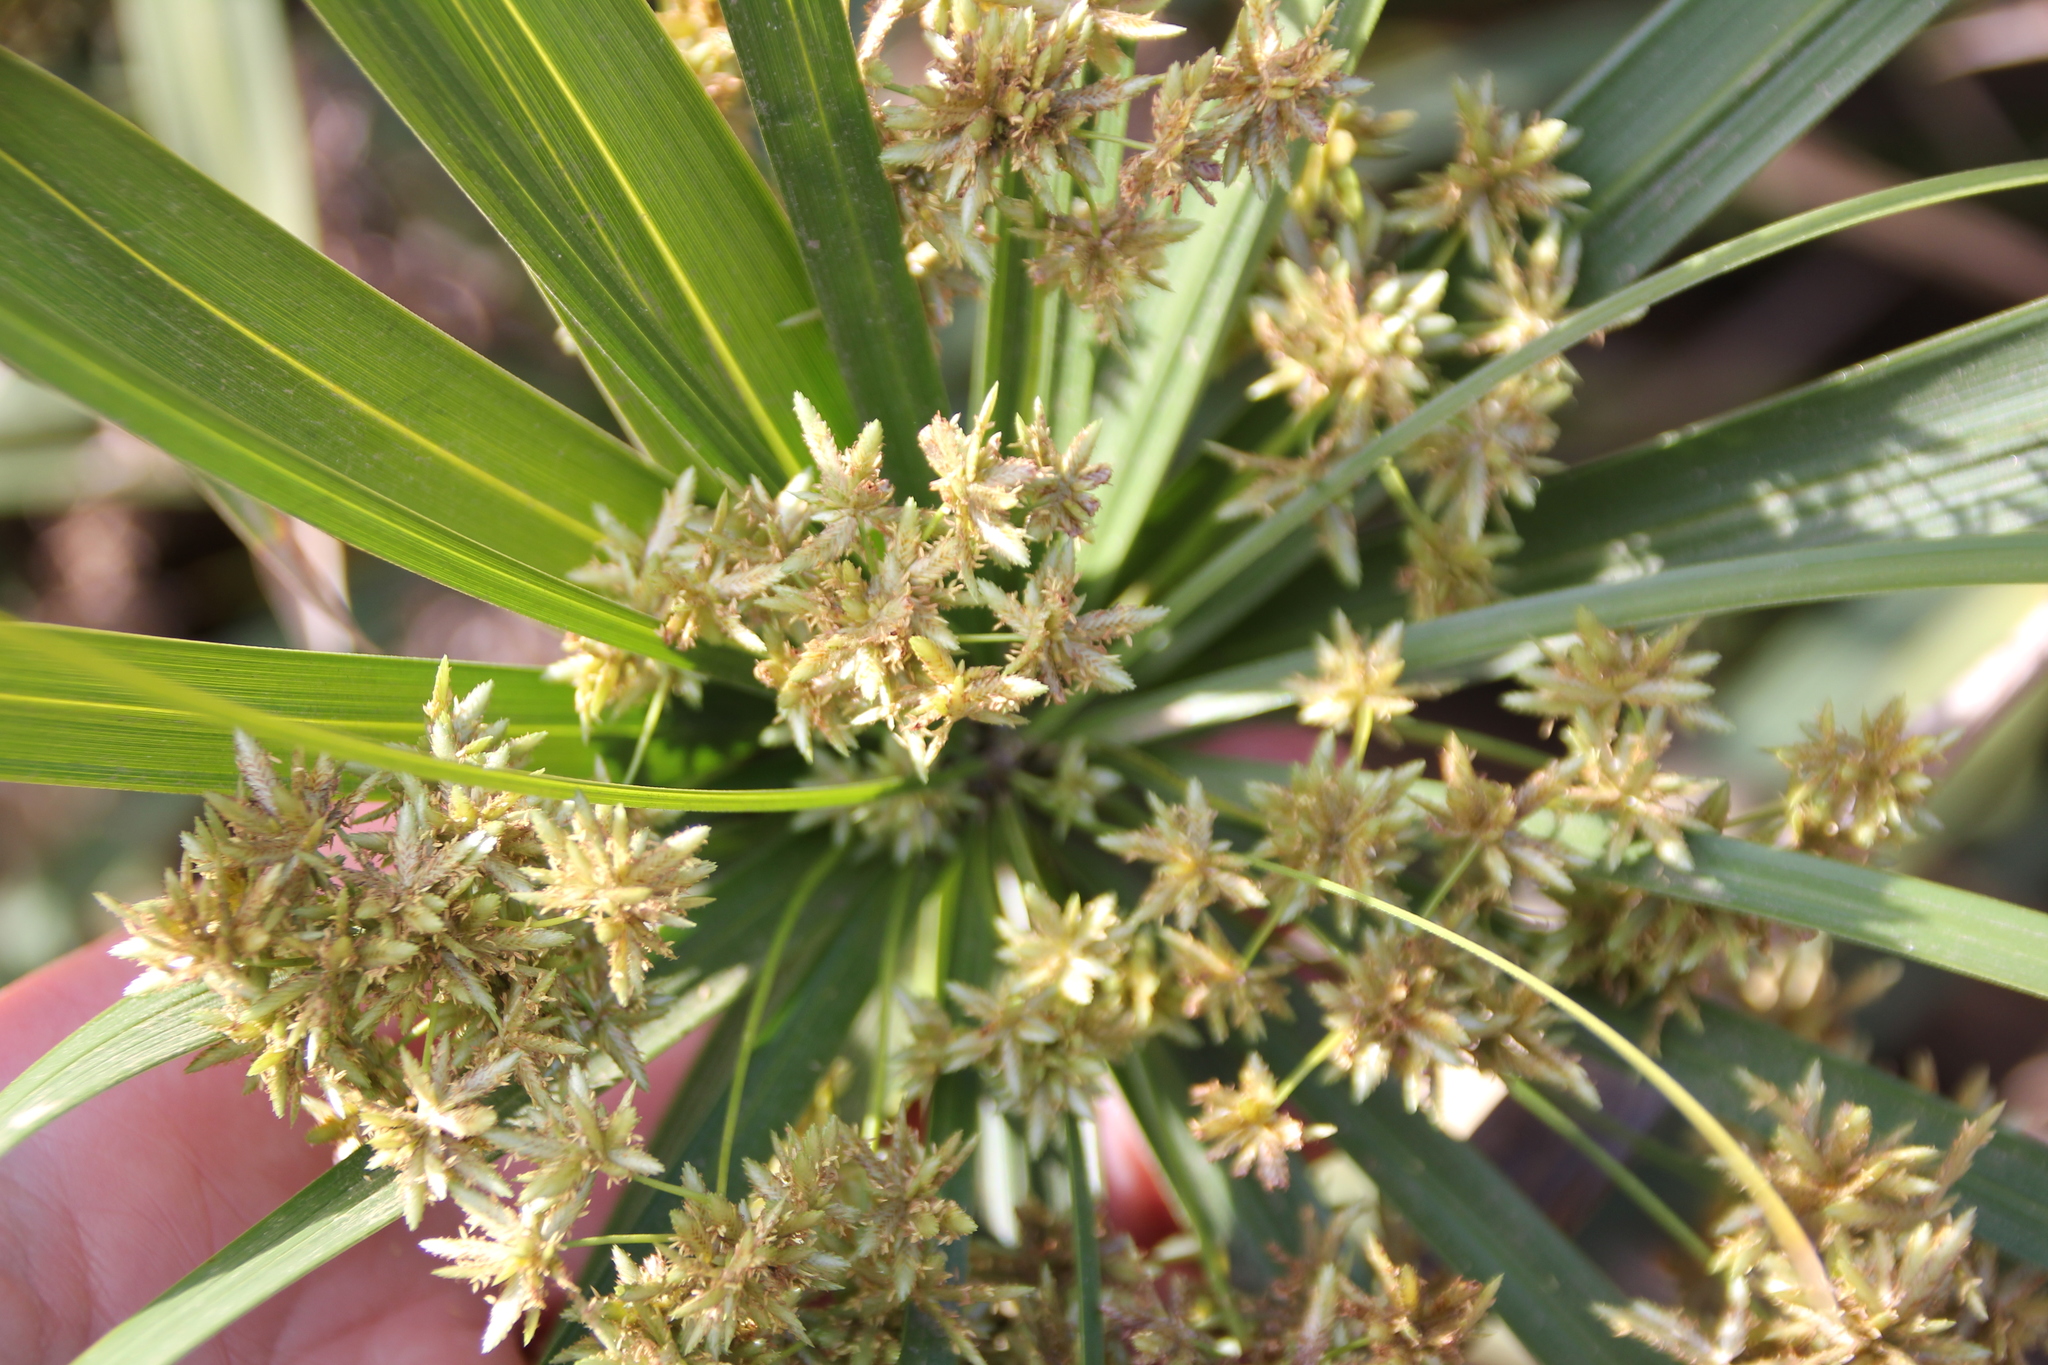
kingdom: Plantae
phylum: Tracheophyta
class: Liliopsida
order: Poales
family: Cyperaceae
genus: Cyperus
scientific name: Cyperus alternifolius
